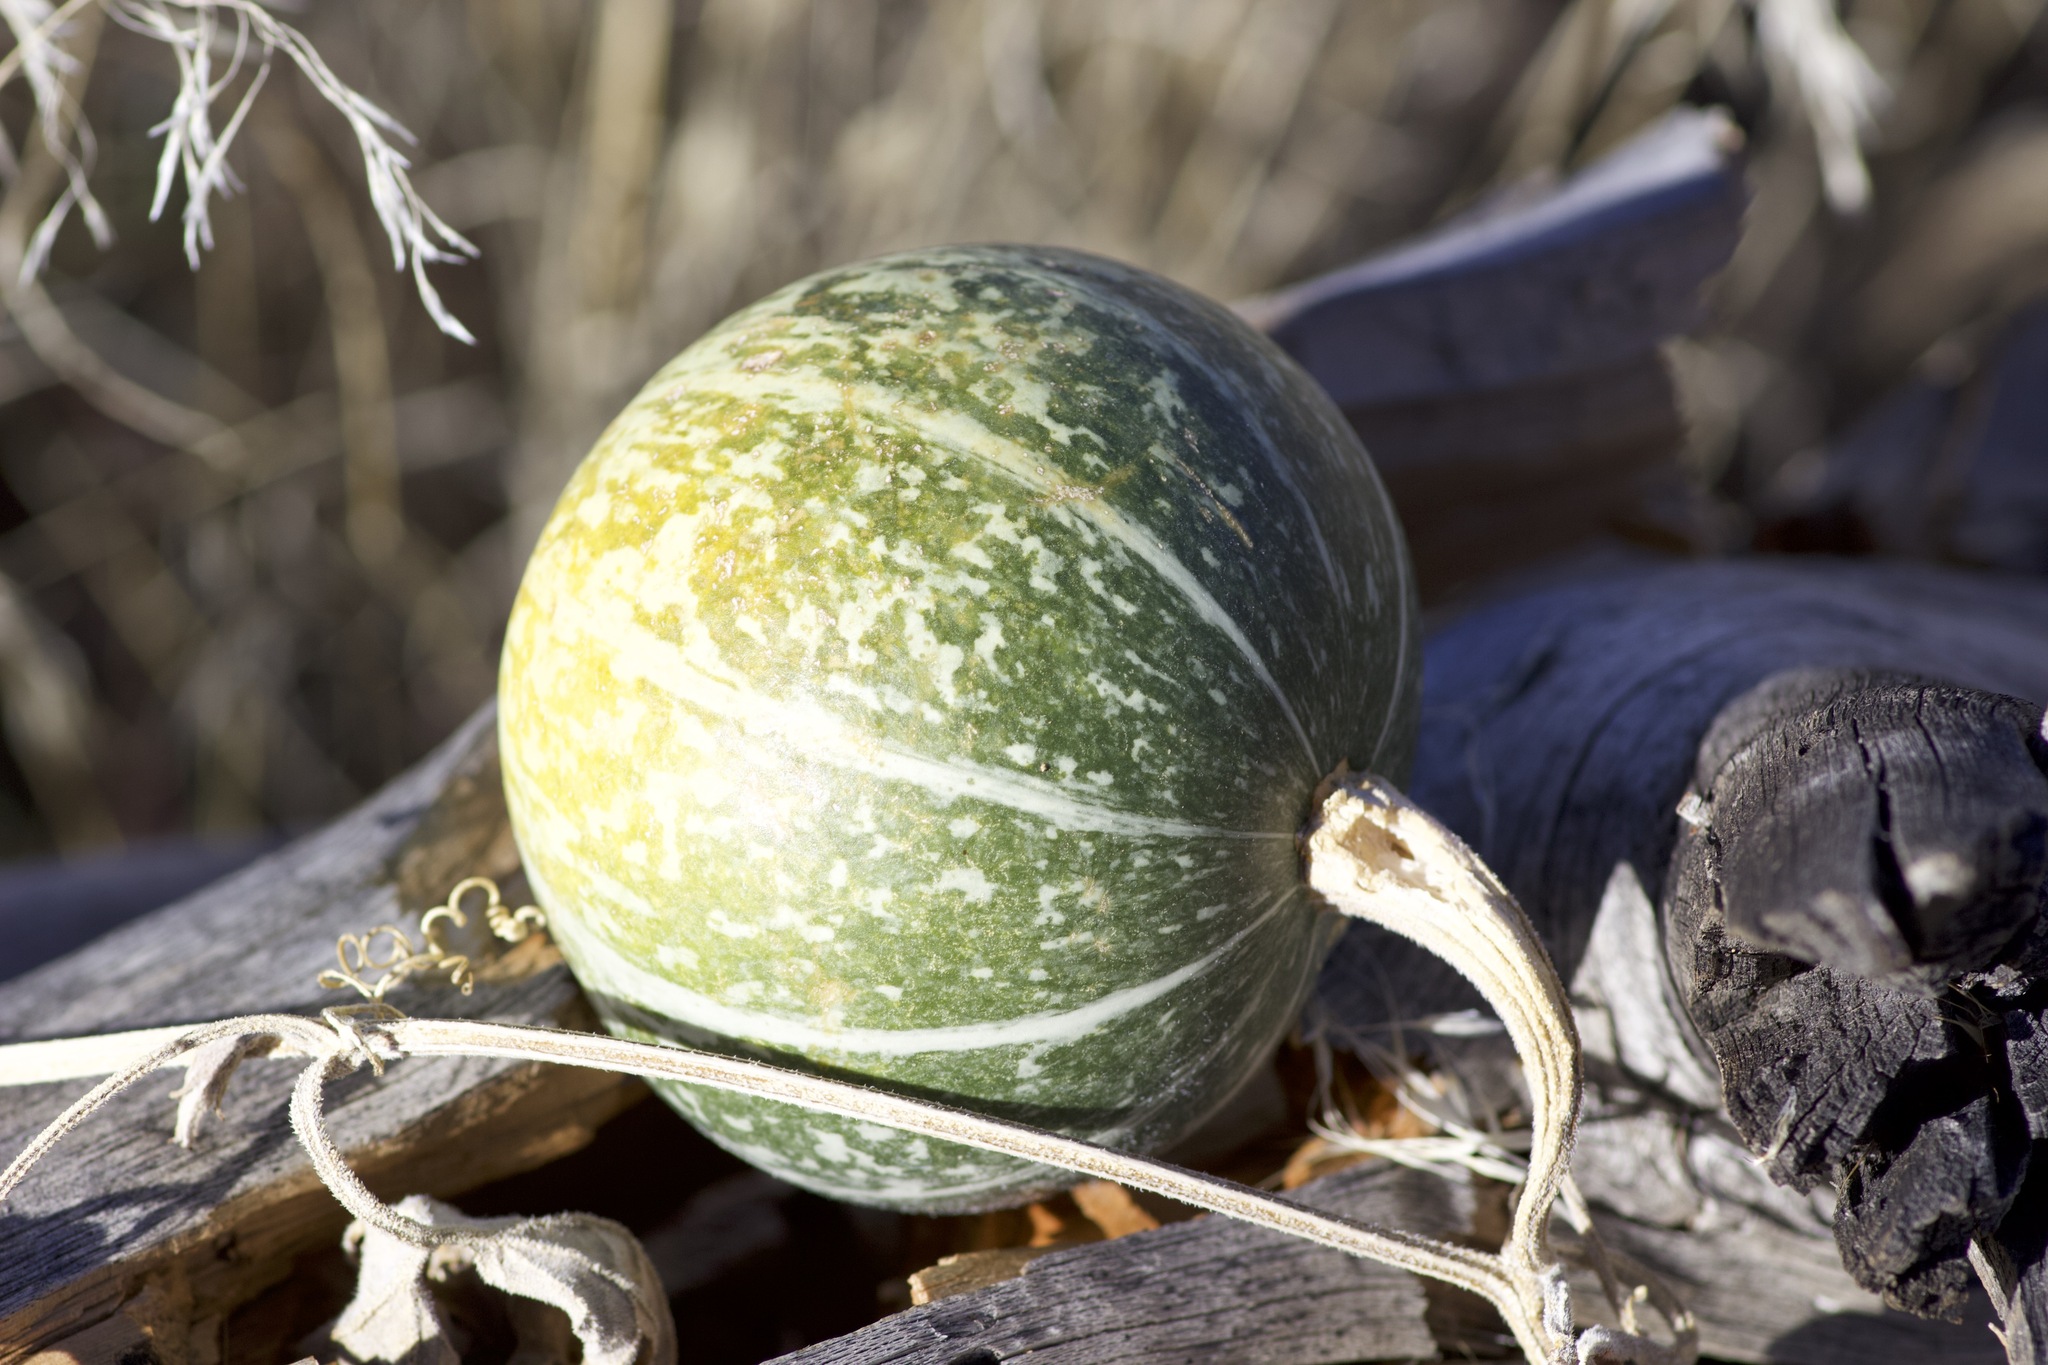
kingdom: Plantae
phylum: Tracheophyta
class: Magnoliopsida
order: Cucurbitales
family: Cucurbitaceae
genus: Cucurbita
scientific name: Cucurbita palmata
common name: Coyote-melon
